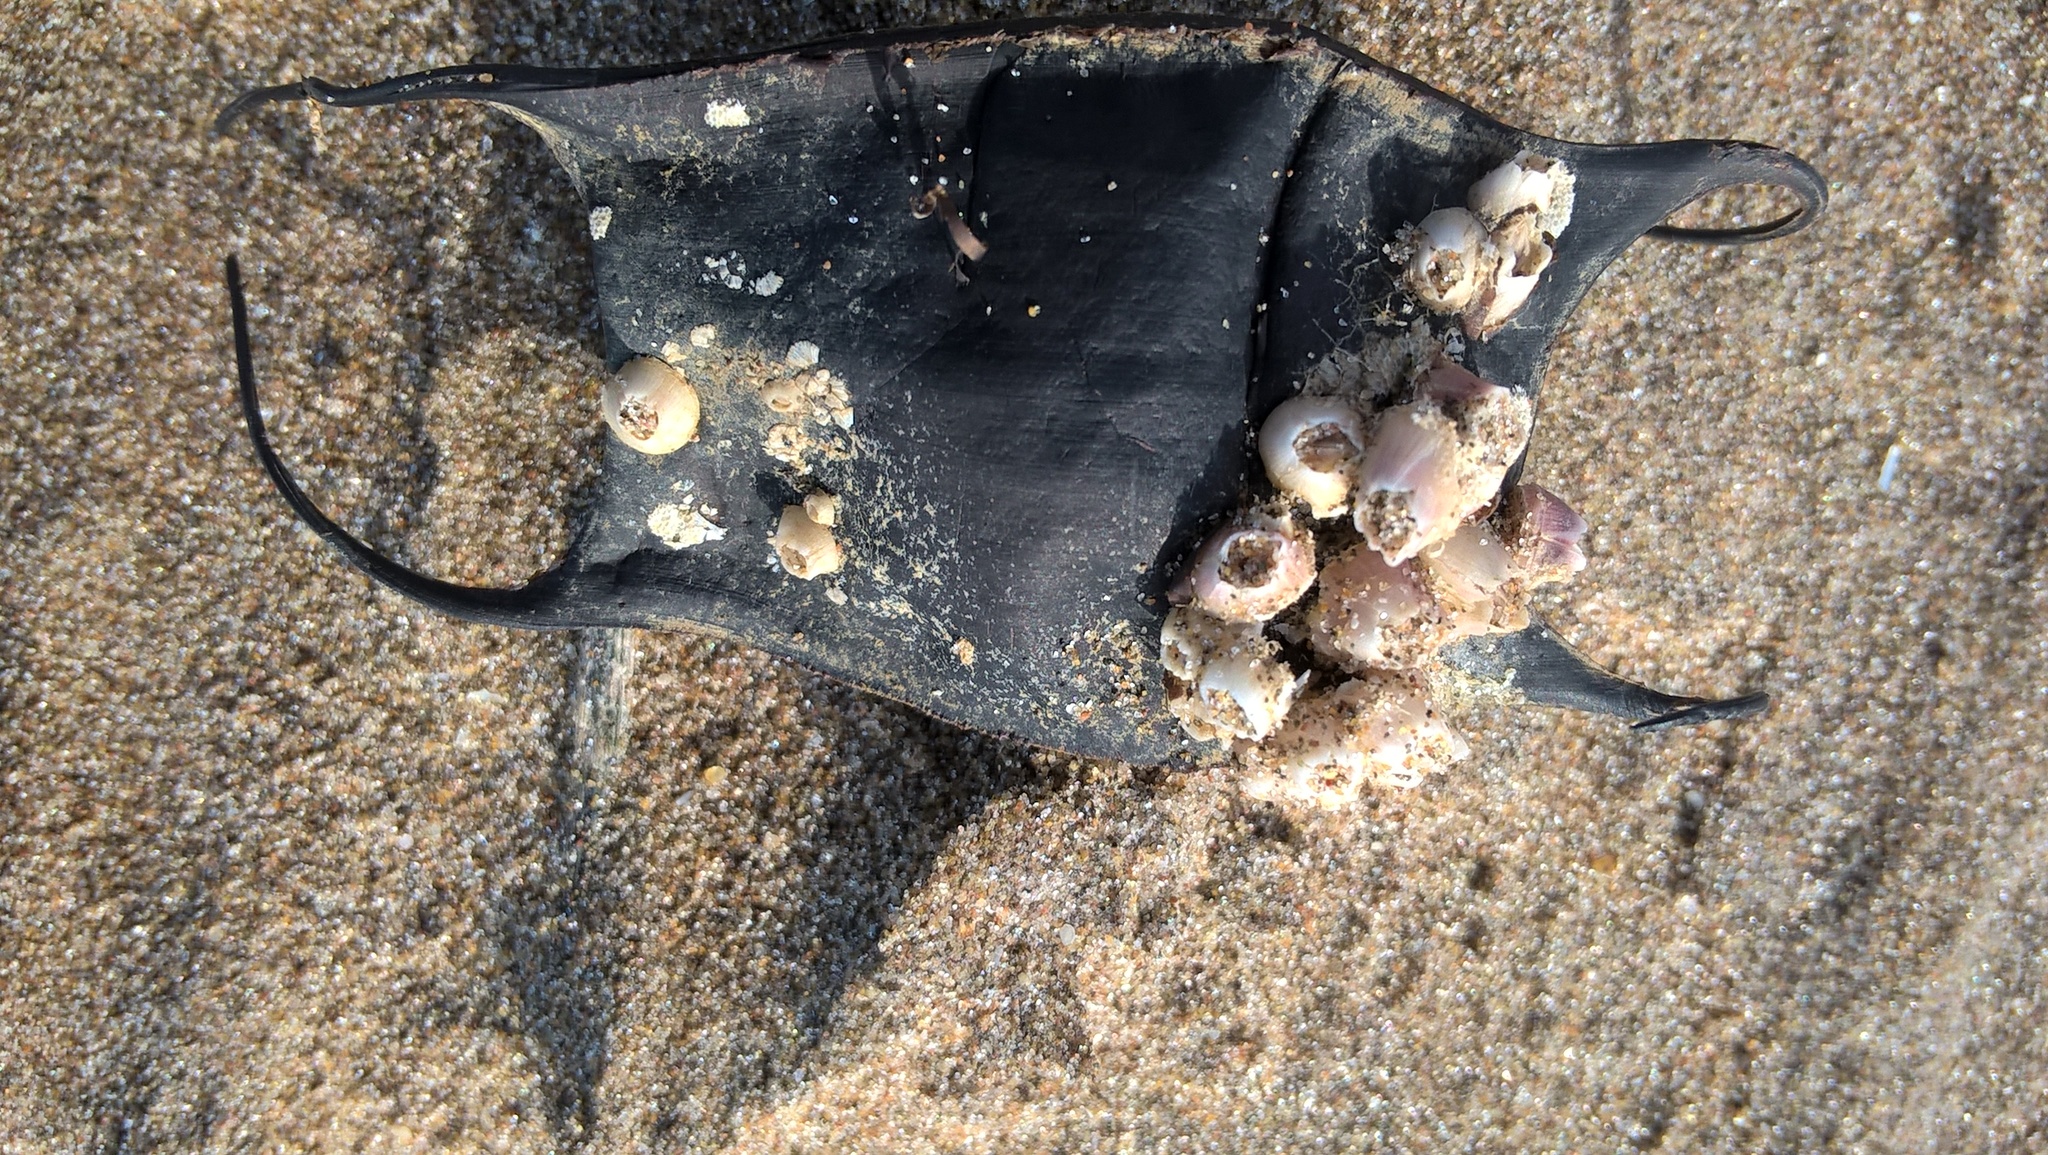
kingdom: Animalia
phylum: Chordata
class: Elasmobranchii
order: Rajiformes
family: Arhynchobatidae
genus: Sympterygia
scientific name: Sympterygia acuta
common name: Bignose fanskate
